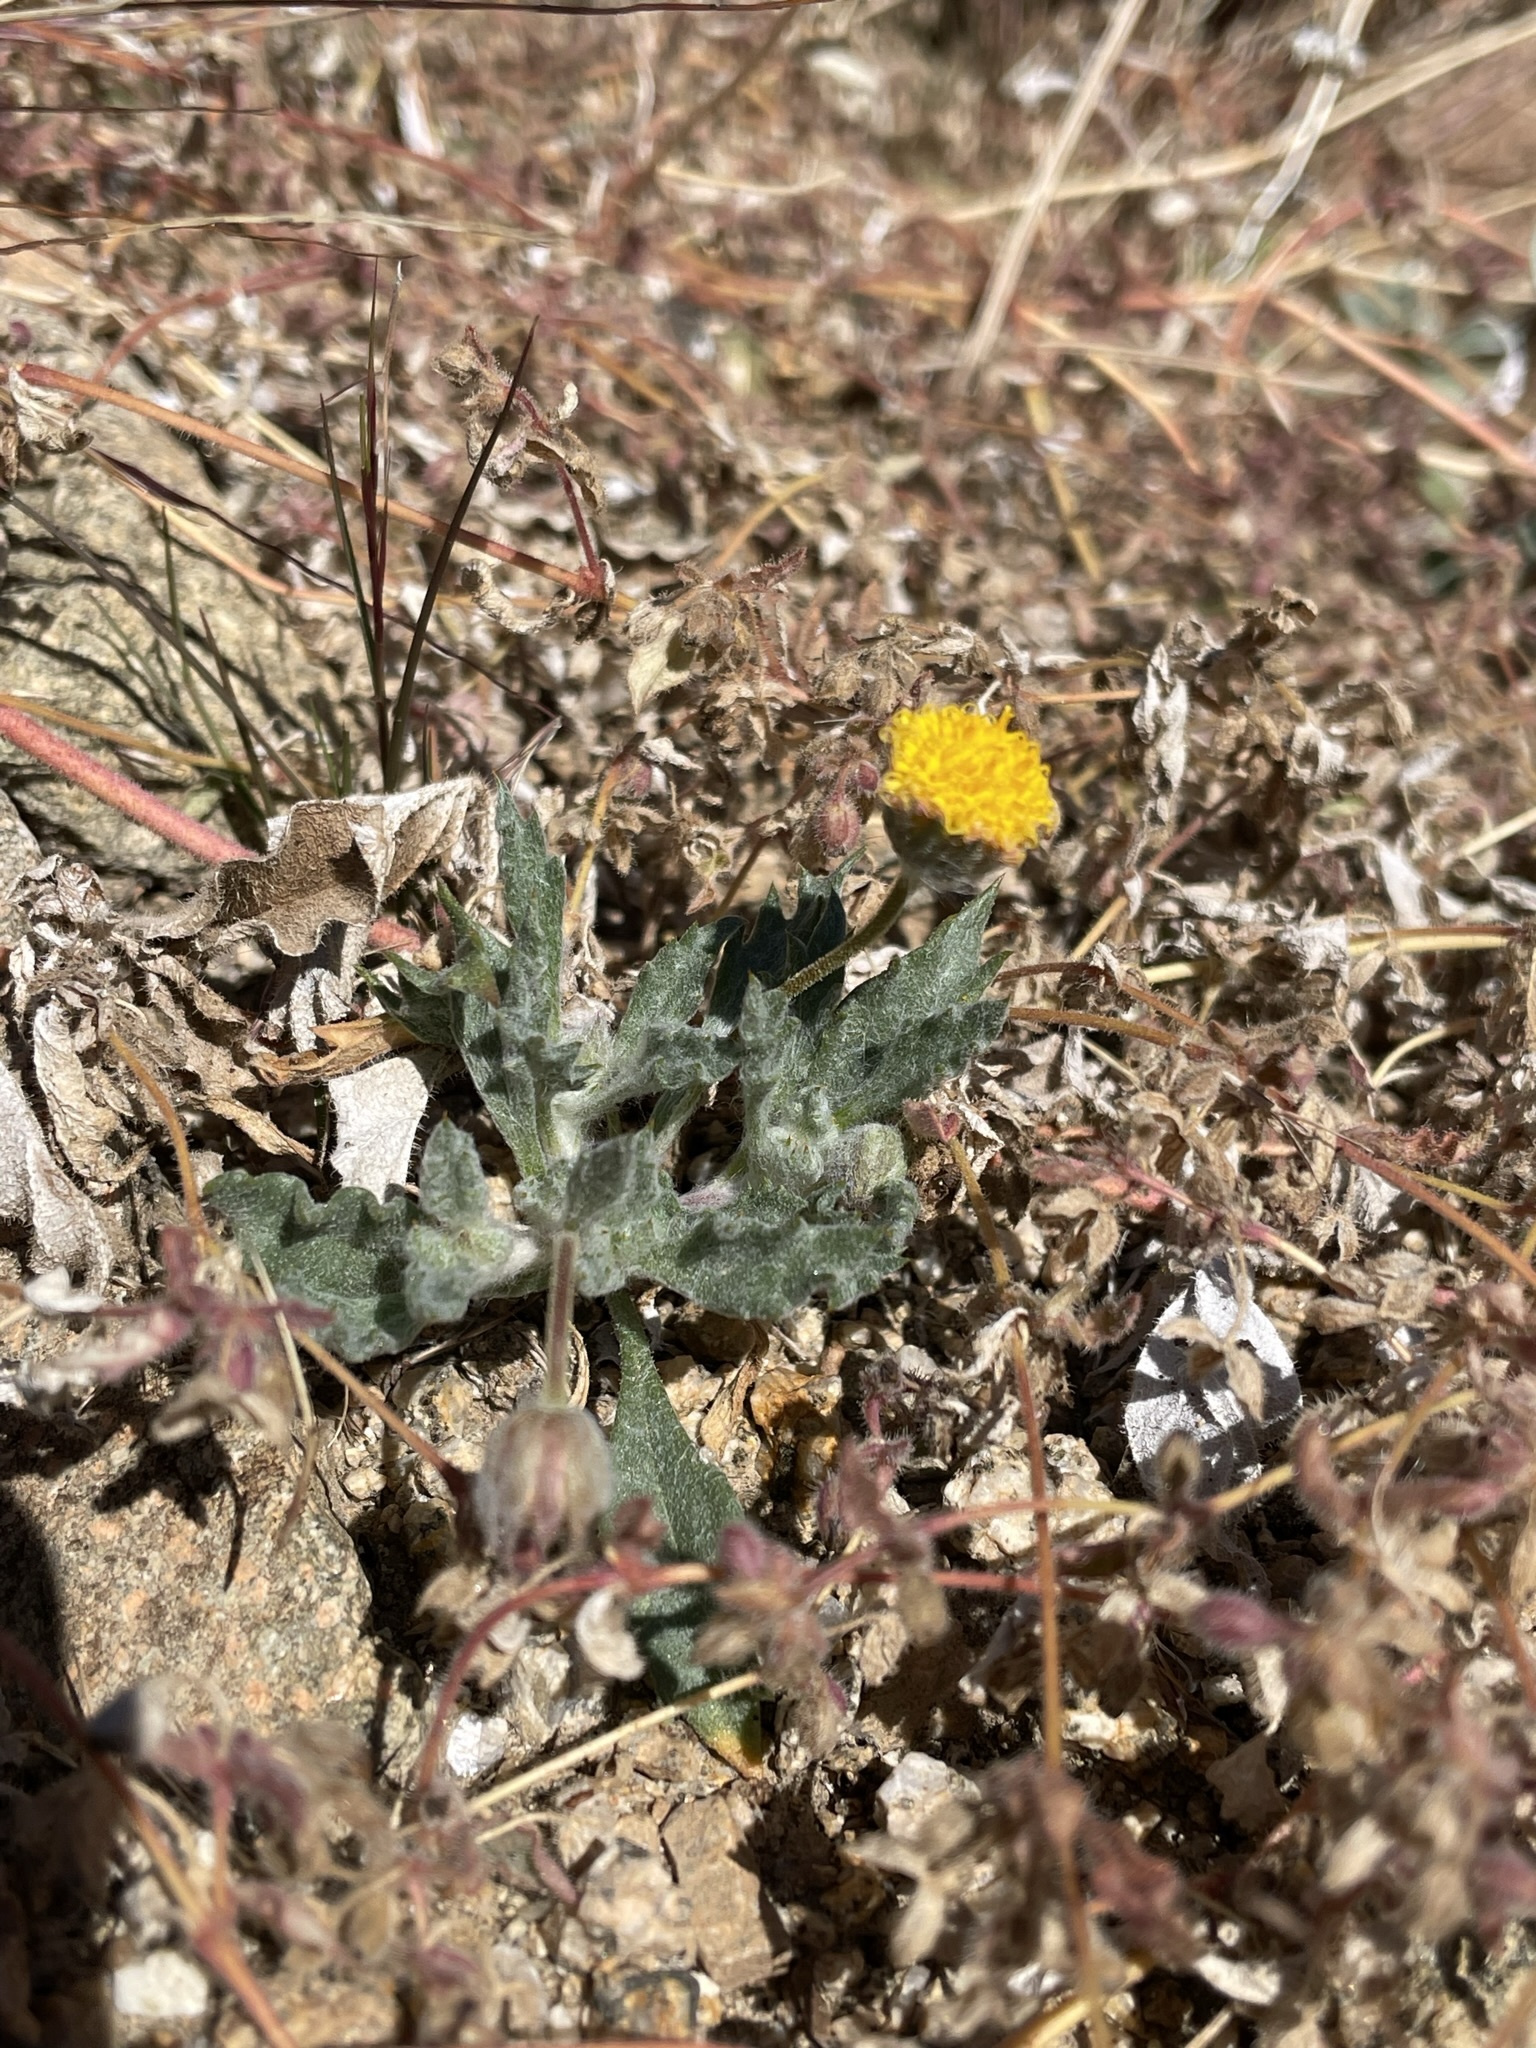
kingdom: Plantae
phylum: Tracheophyta
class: Magnoliopsida
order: Asterales
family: Asteraceae
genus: Trichoptilium
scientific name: Trichoptilium incisum
